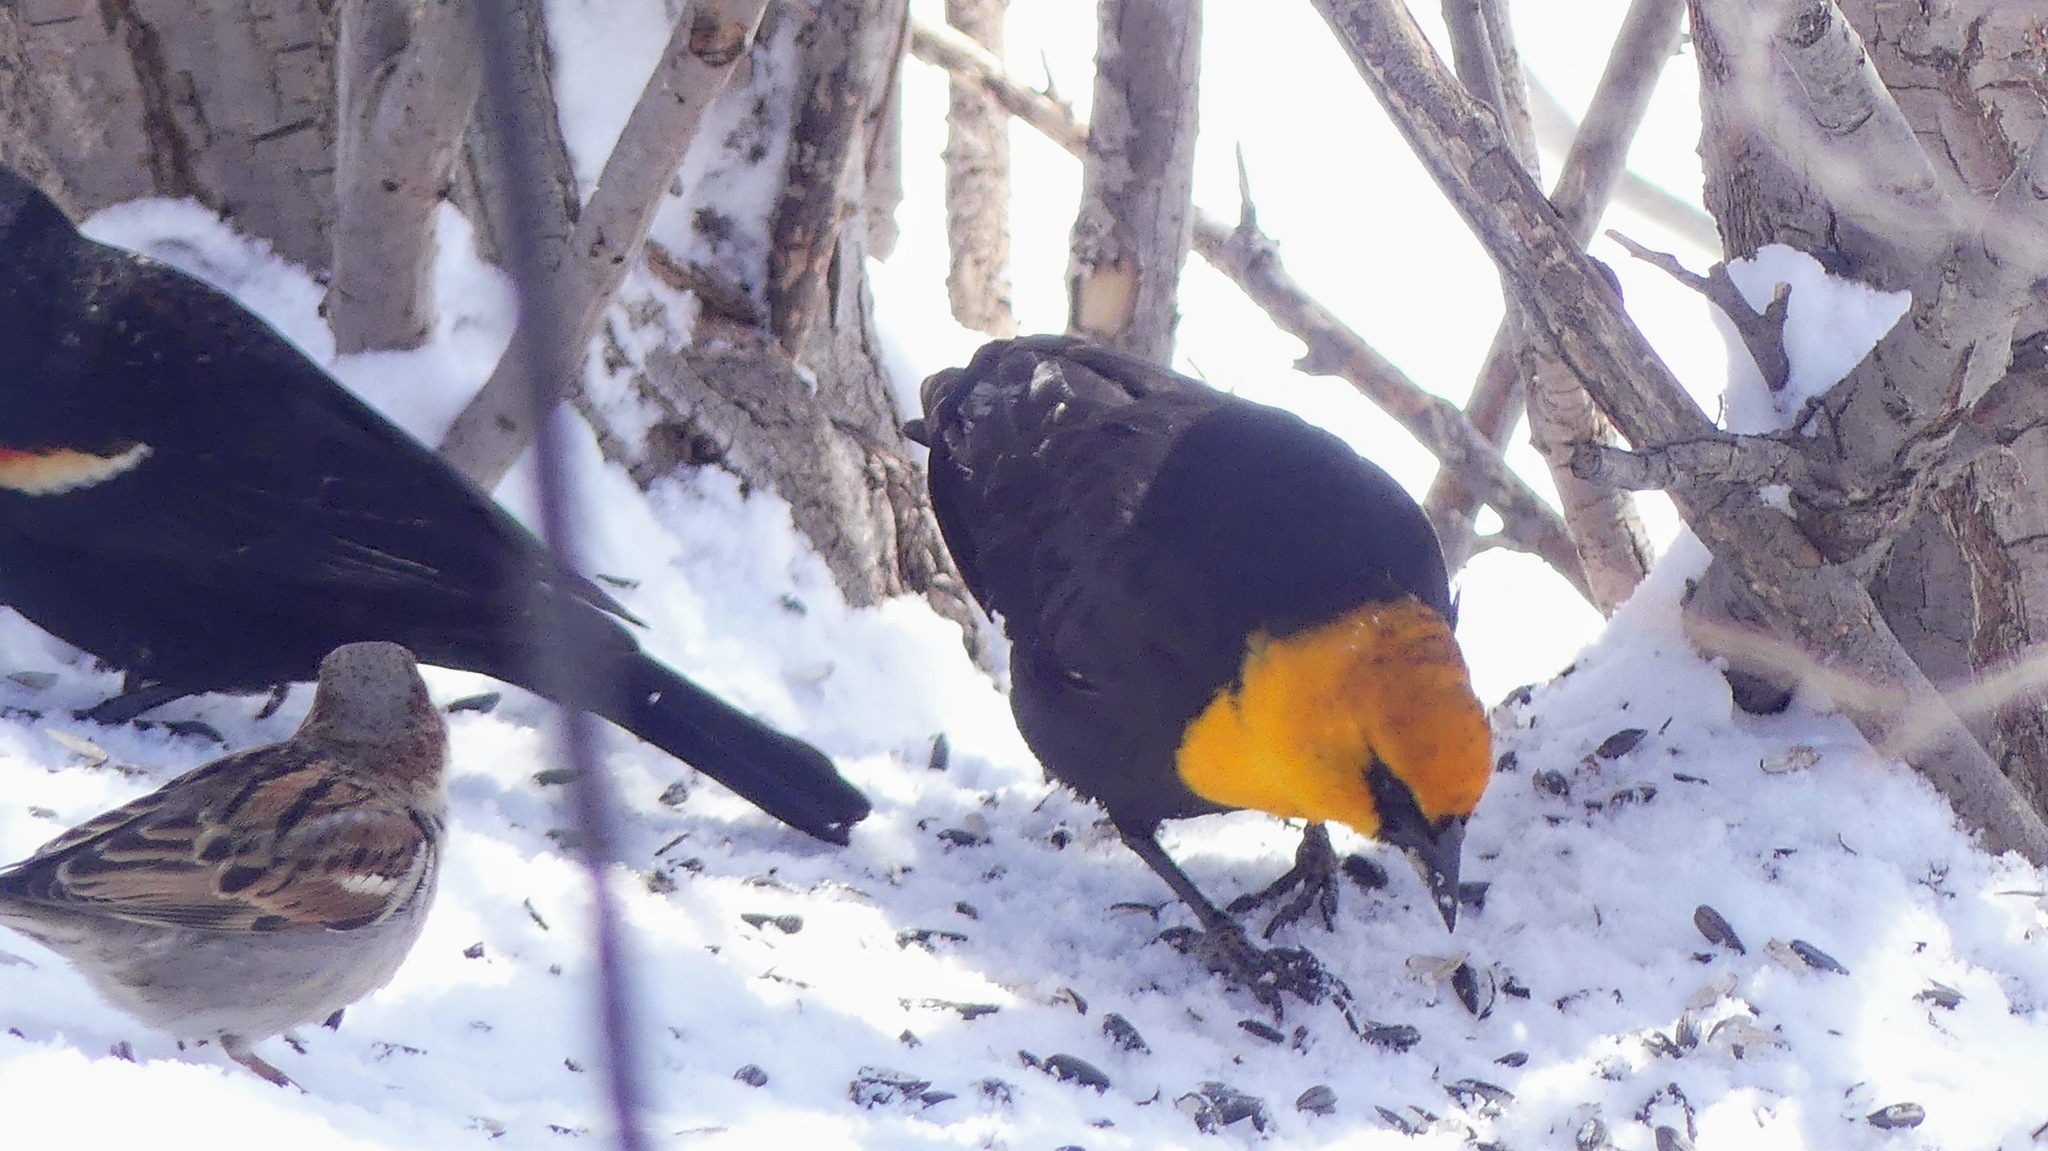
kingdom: Animalia
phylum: Chordata
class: Aves
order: Passeriformes
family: Icteridae
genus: Xanthocephalus
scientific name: Xanthocephalus xanthocephalus
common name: Yellow-headed blackbird
